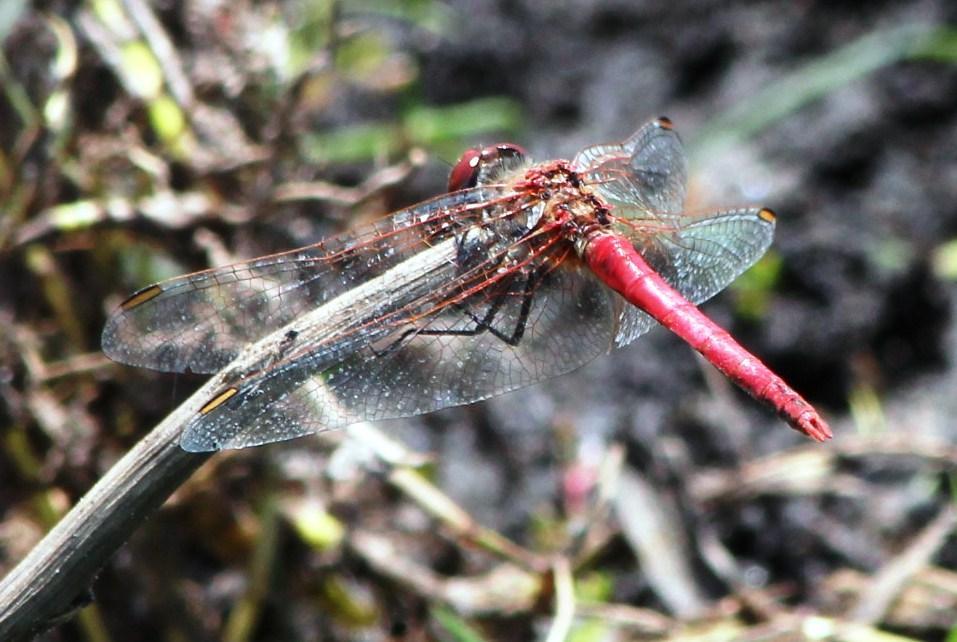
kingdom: Animalia
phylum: Arthropoda
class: Insecta
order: Odonata
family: Libellulidae
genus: Sympetrum
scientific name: Sympetrum fonscolombii
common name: Red-veined darter
